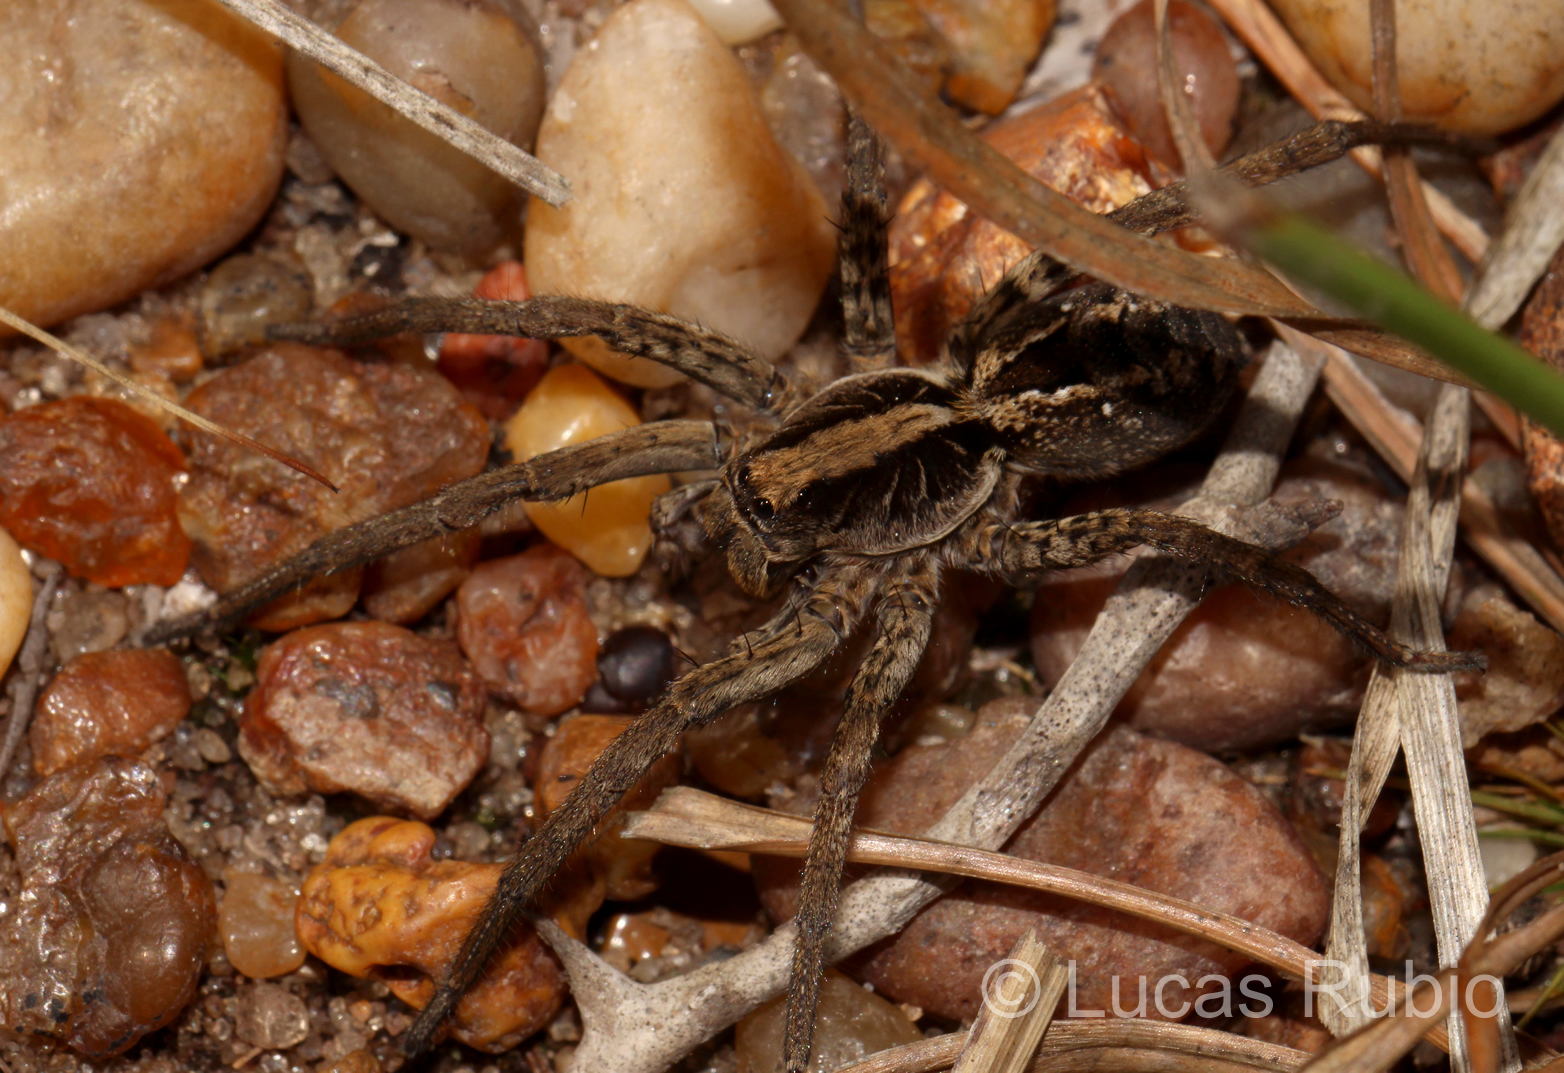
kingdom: Animalia
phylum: Arthropoda
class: Arachnida
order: Araneae
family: Lycosidae
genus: Schizocosa
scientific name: Schizocosa malitiosa
